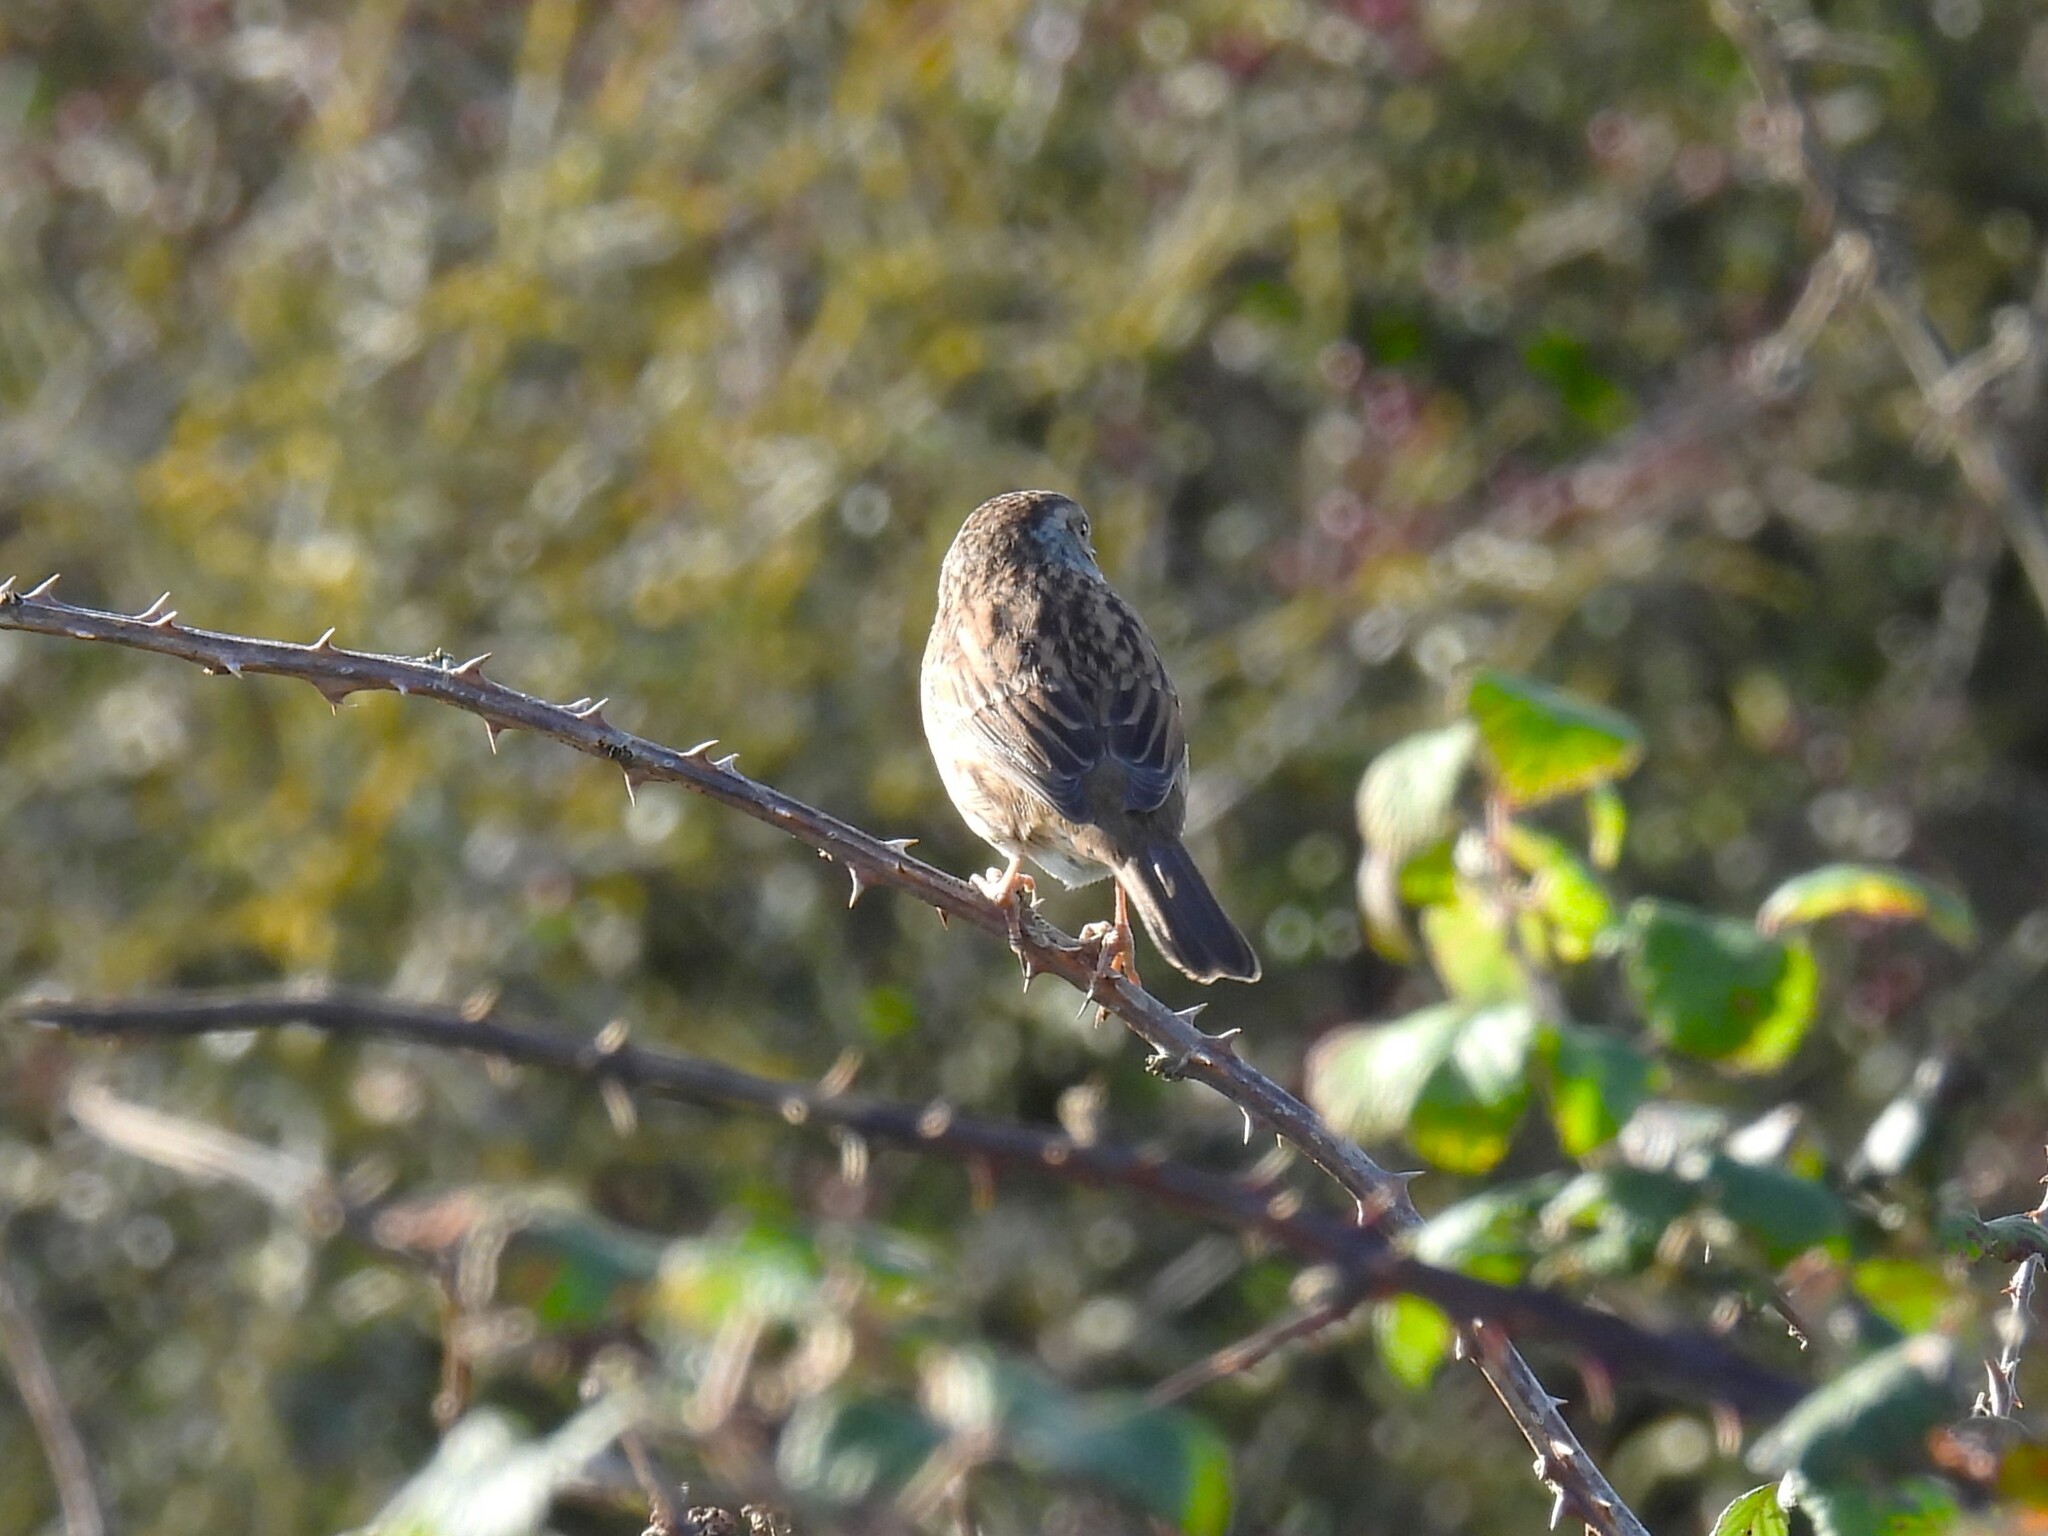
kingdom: Animalia
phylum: Chordata
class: Aves
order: Passeriformes
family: Prunellidae
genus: Prunella
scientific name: Prunella modularis
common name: Dunnock
